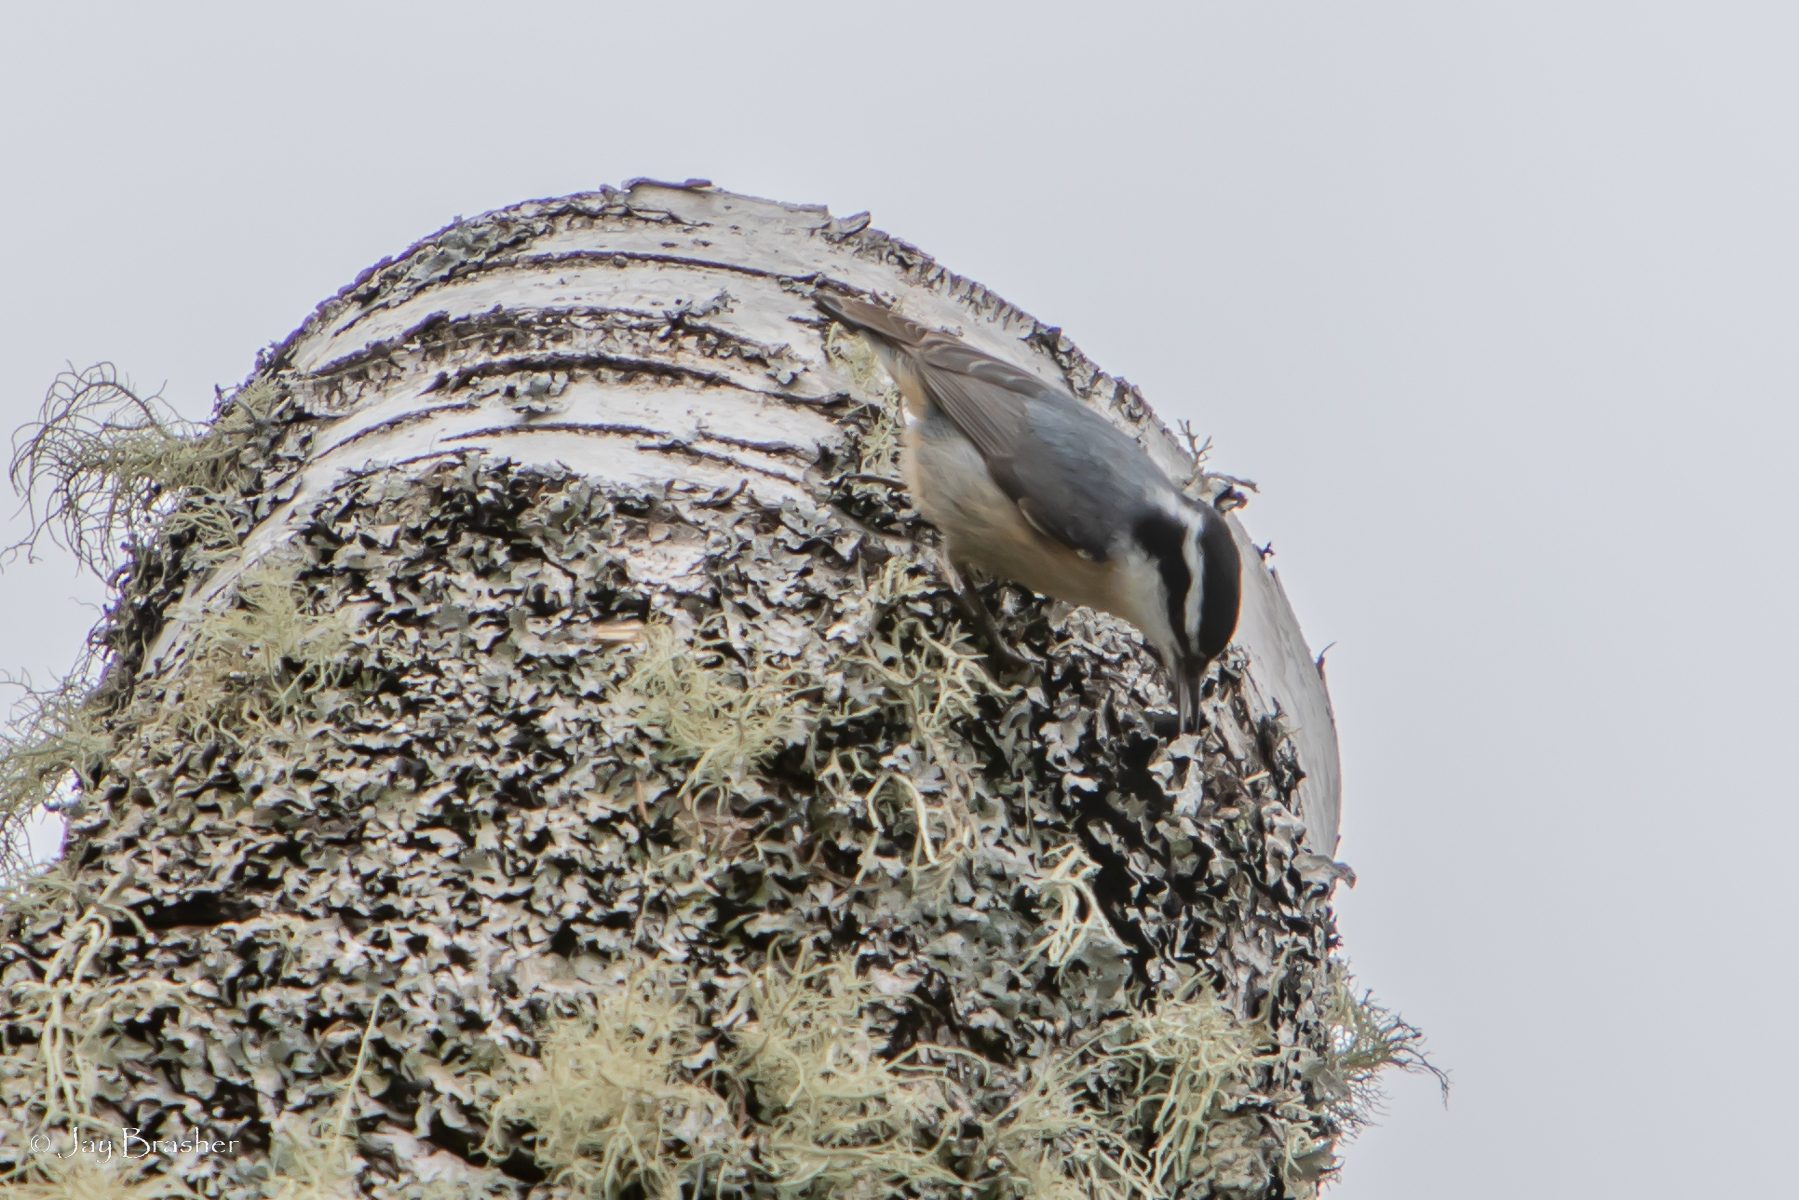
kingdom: Animalia
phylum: Chordata
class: Aves
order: Passeriformes
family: Sittidae
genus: Sitta
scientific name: Sitta canadensis
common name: Red-breasted nuthatch
